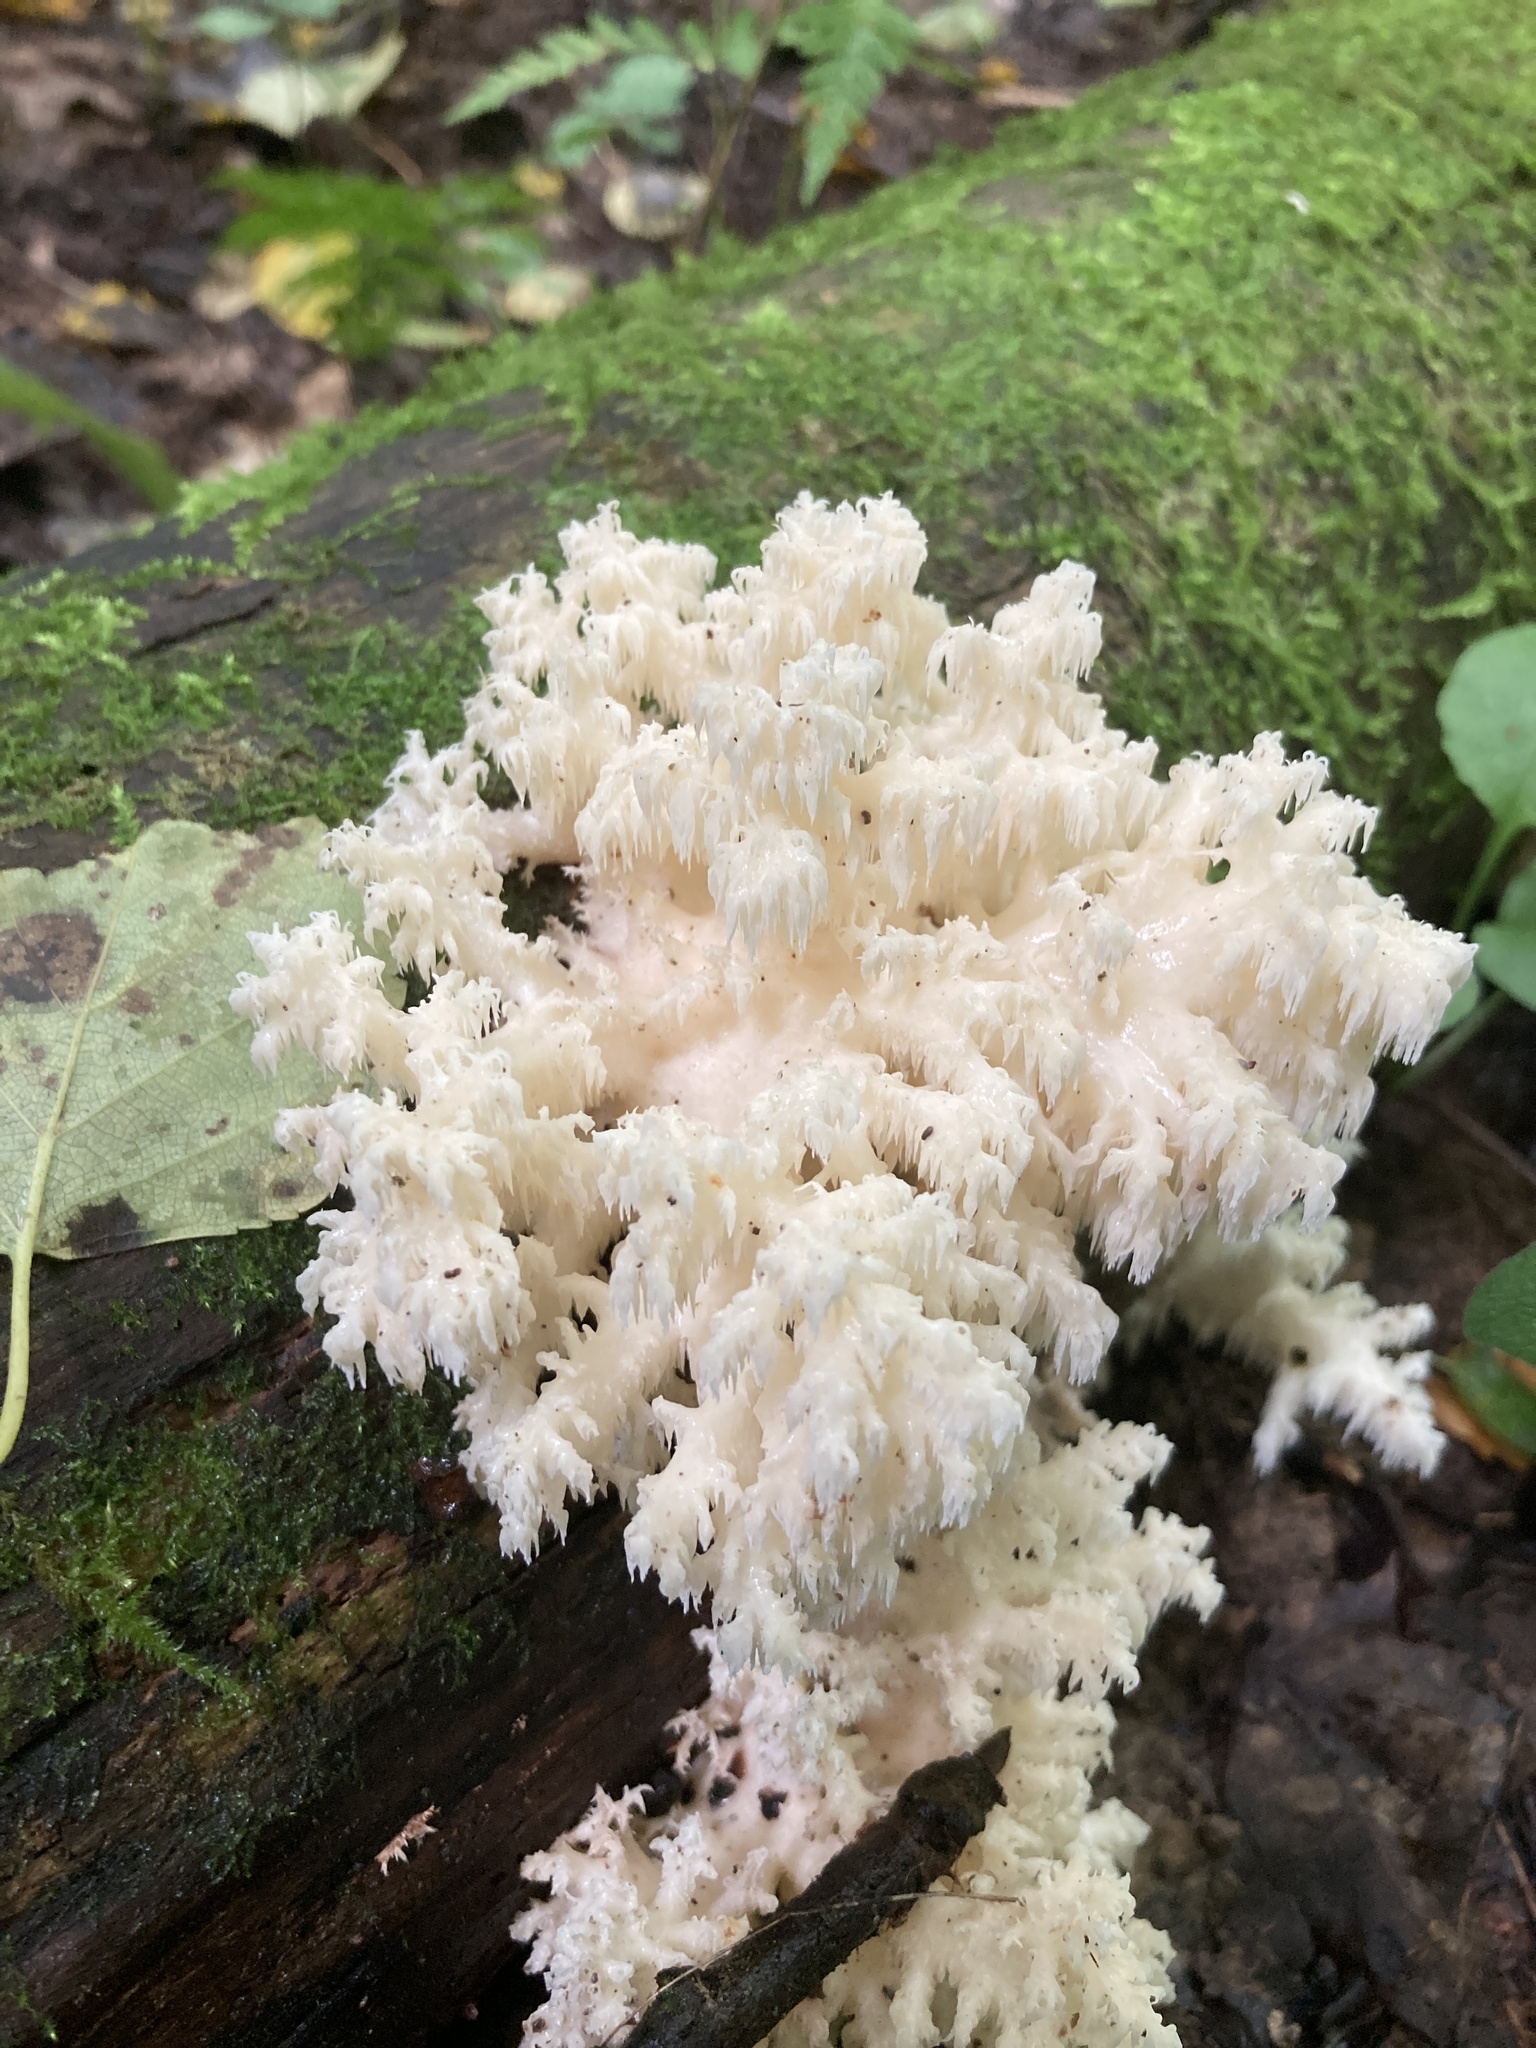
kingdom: Fungi
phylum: Basidiomycota
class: Agaricomycetes
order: Russulales
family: Hericiaceae
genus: Hericium
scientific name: Hericium coralloides
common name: Coral tooth
